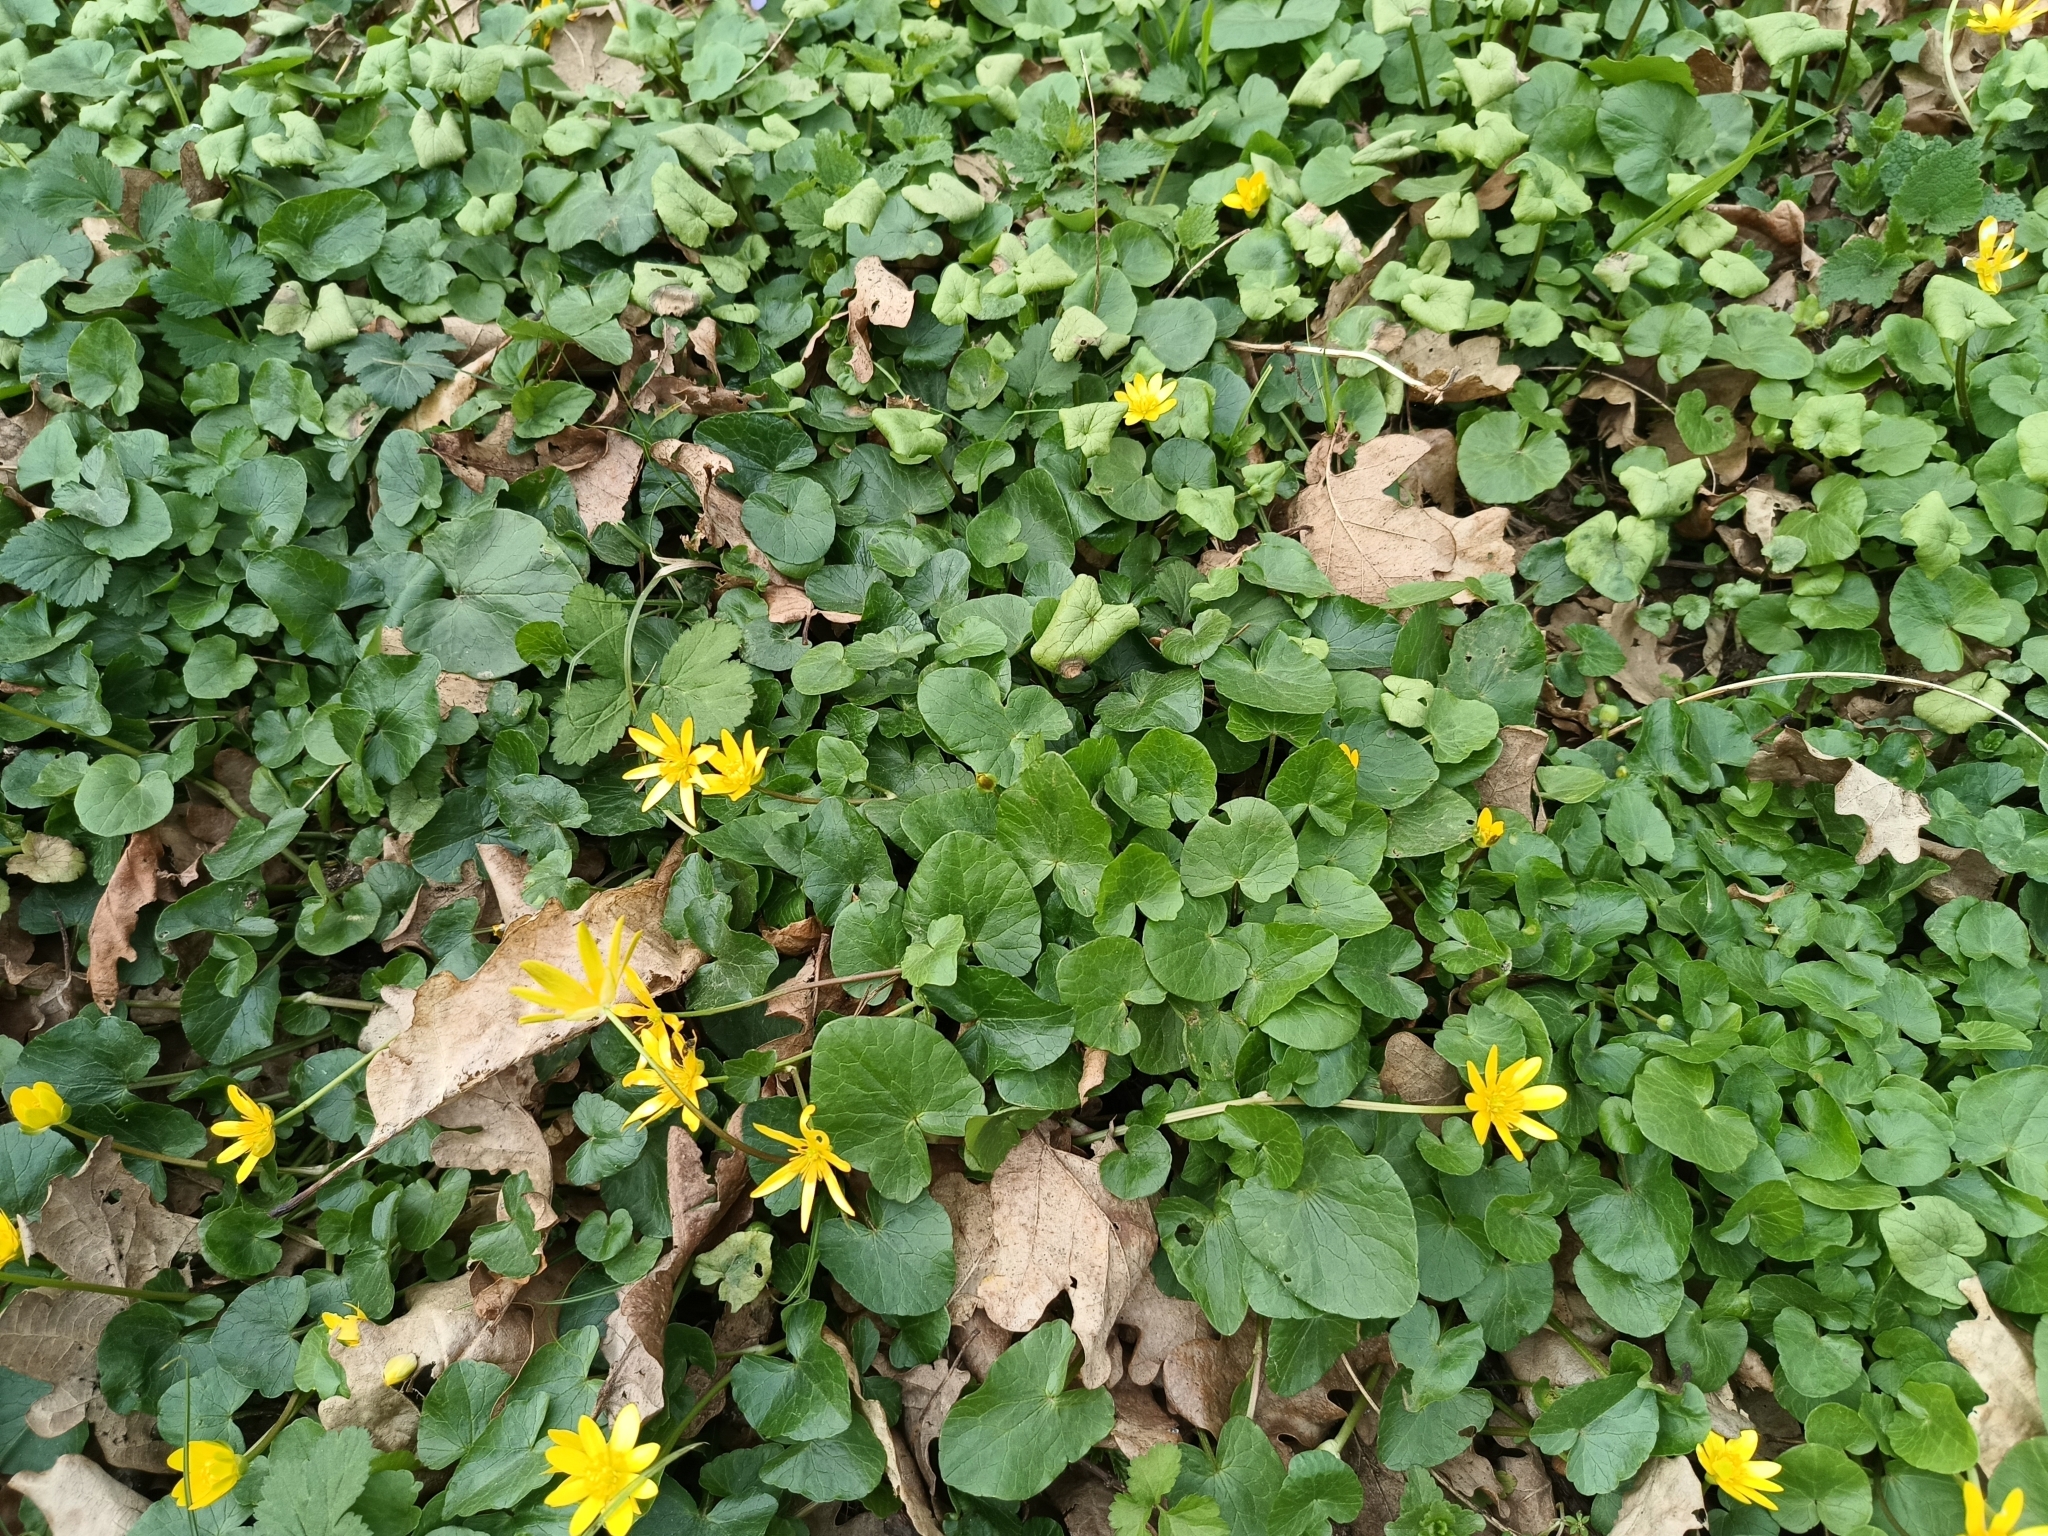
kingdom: Plantae
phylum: Tracheophyta
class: Magnoliopsida
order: Ranunculales
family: Ranunculaceae
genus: Ficaria
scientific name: Ficaria verna
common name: Lesser celandine
